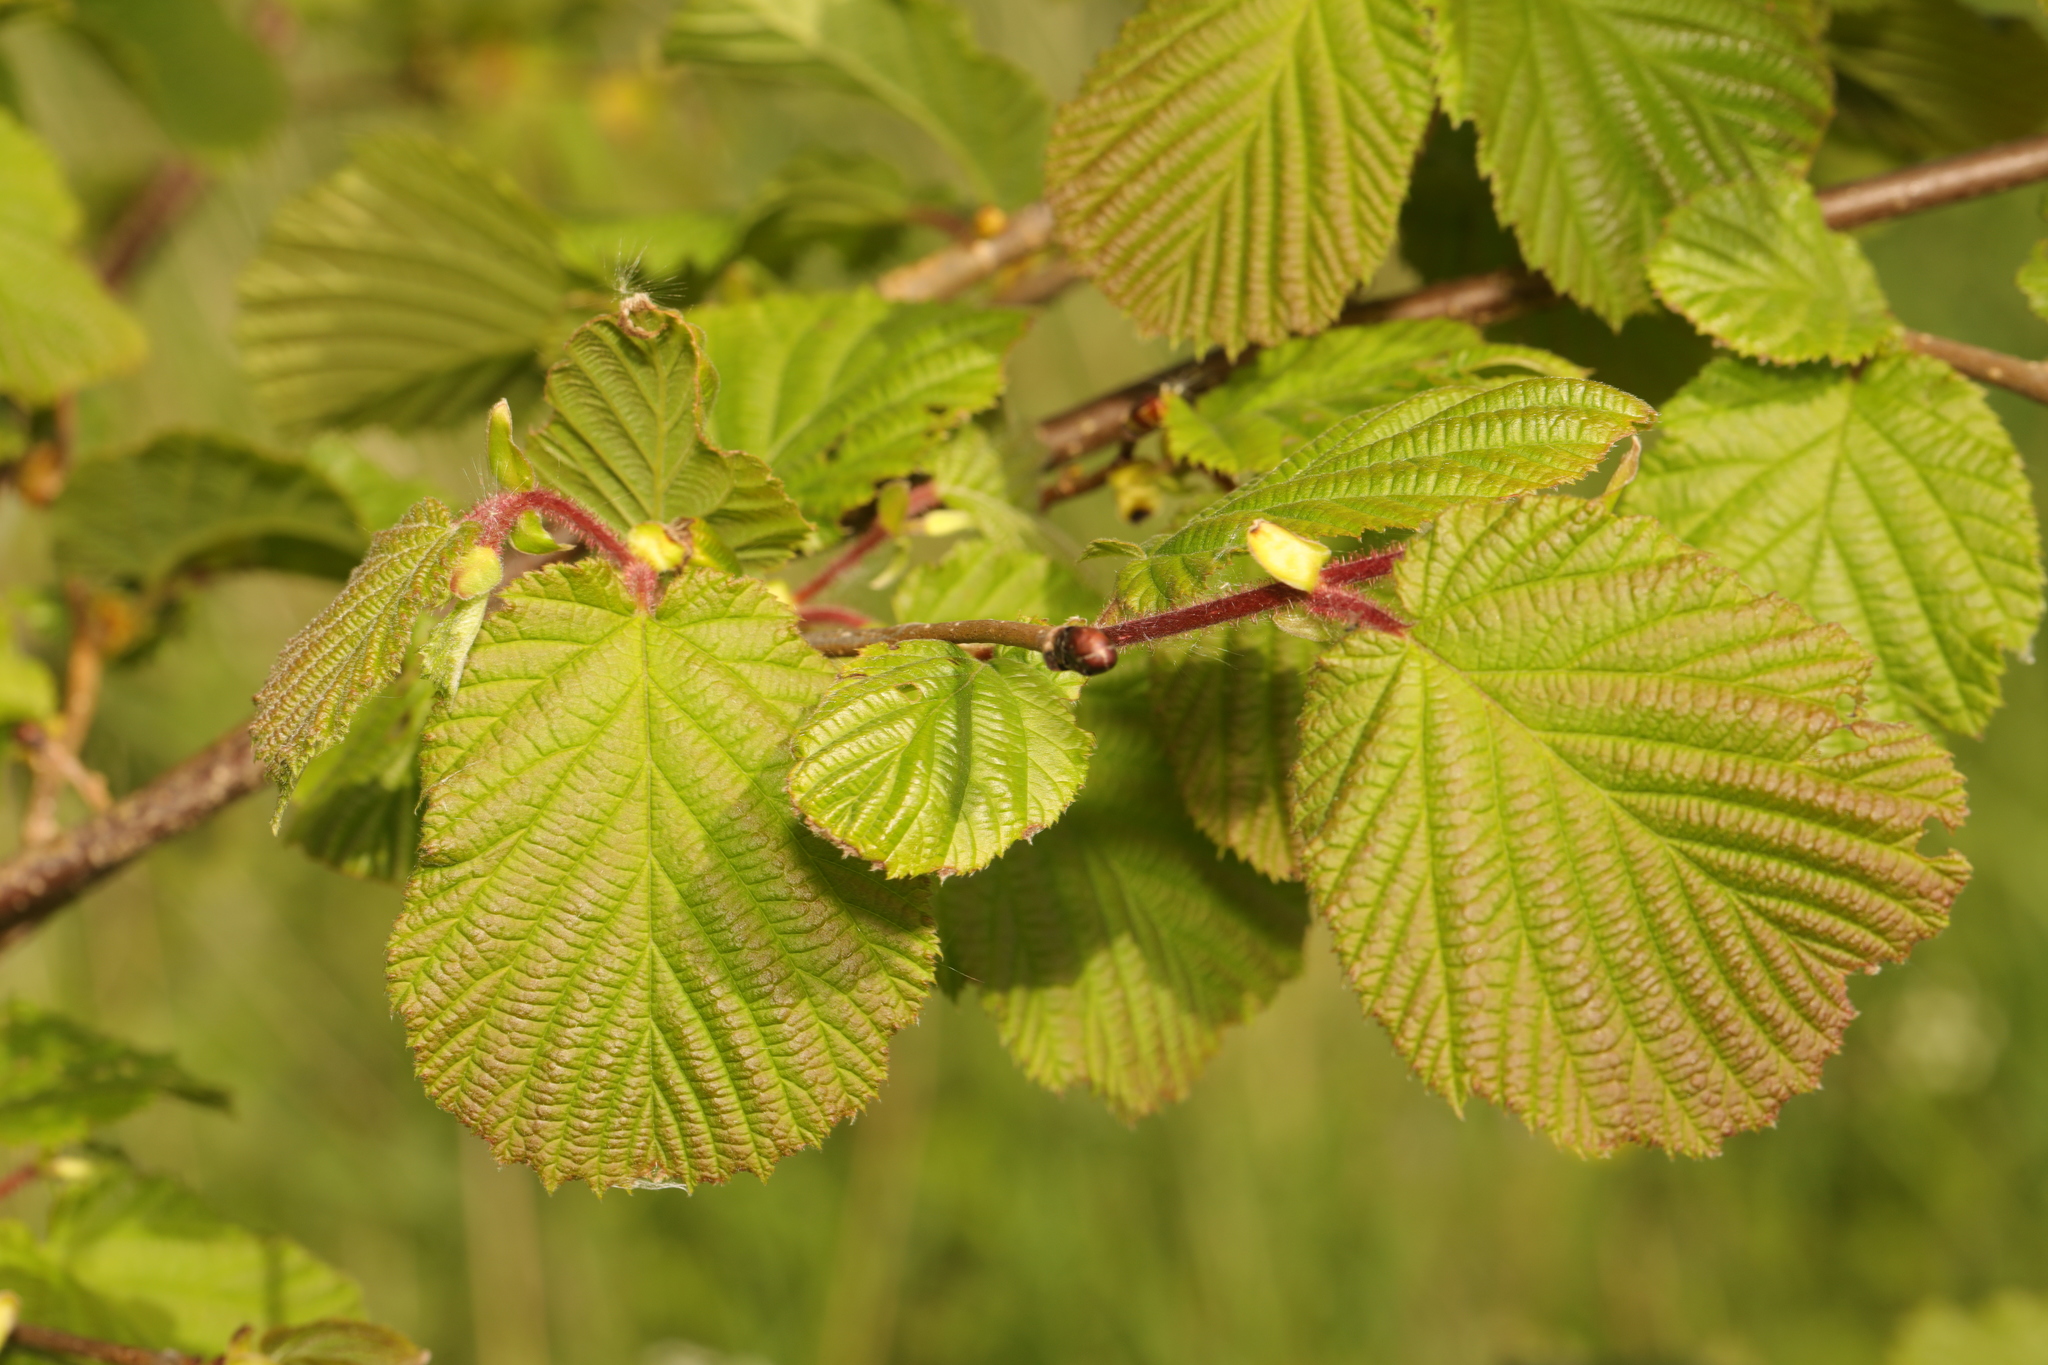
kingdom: Plantae
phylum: Tracheophyta
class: Magnoliopsida
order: Fagales
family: Betulaceae
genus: Corylus
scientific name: Corylus avellana
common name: European hazel
